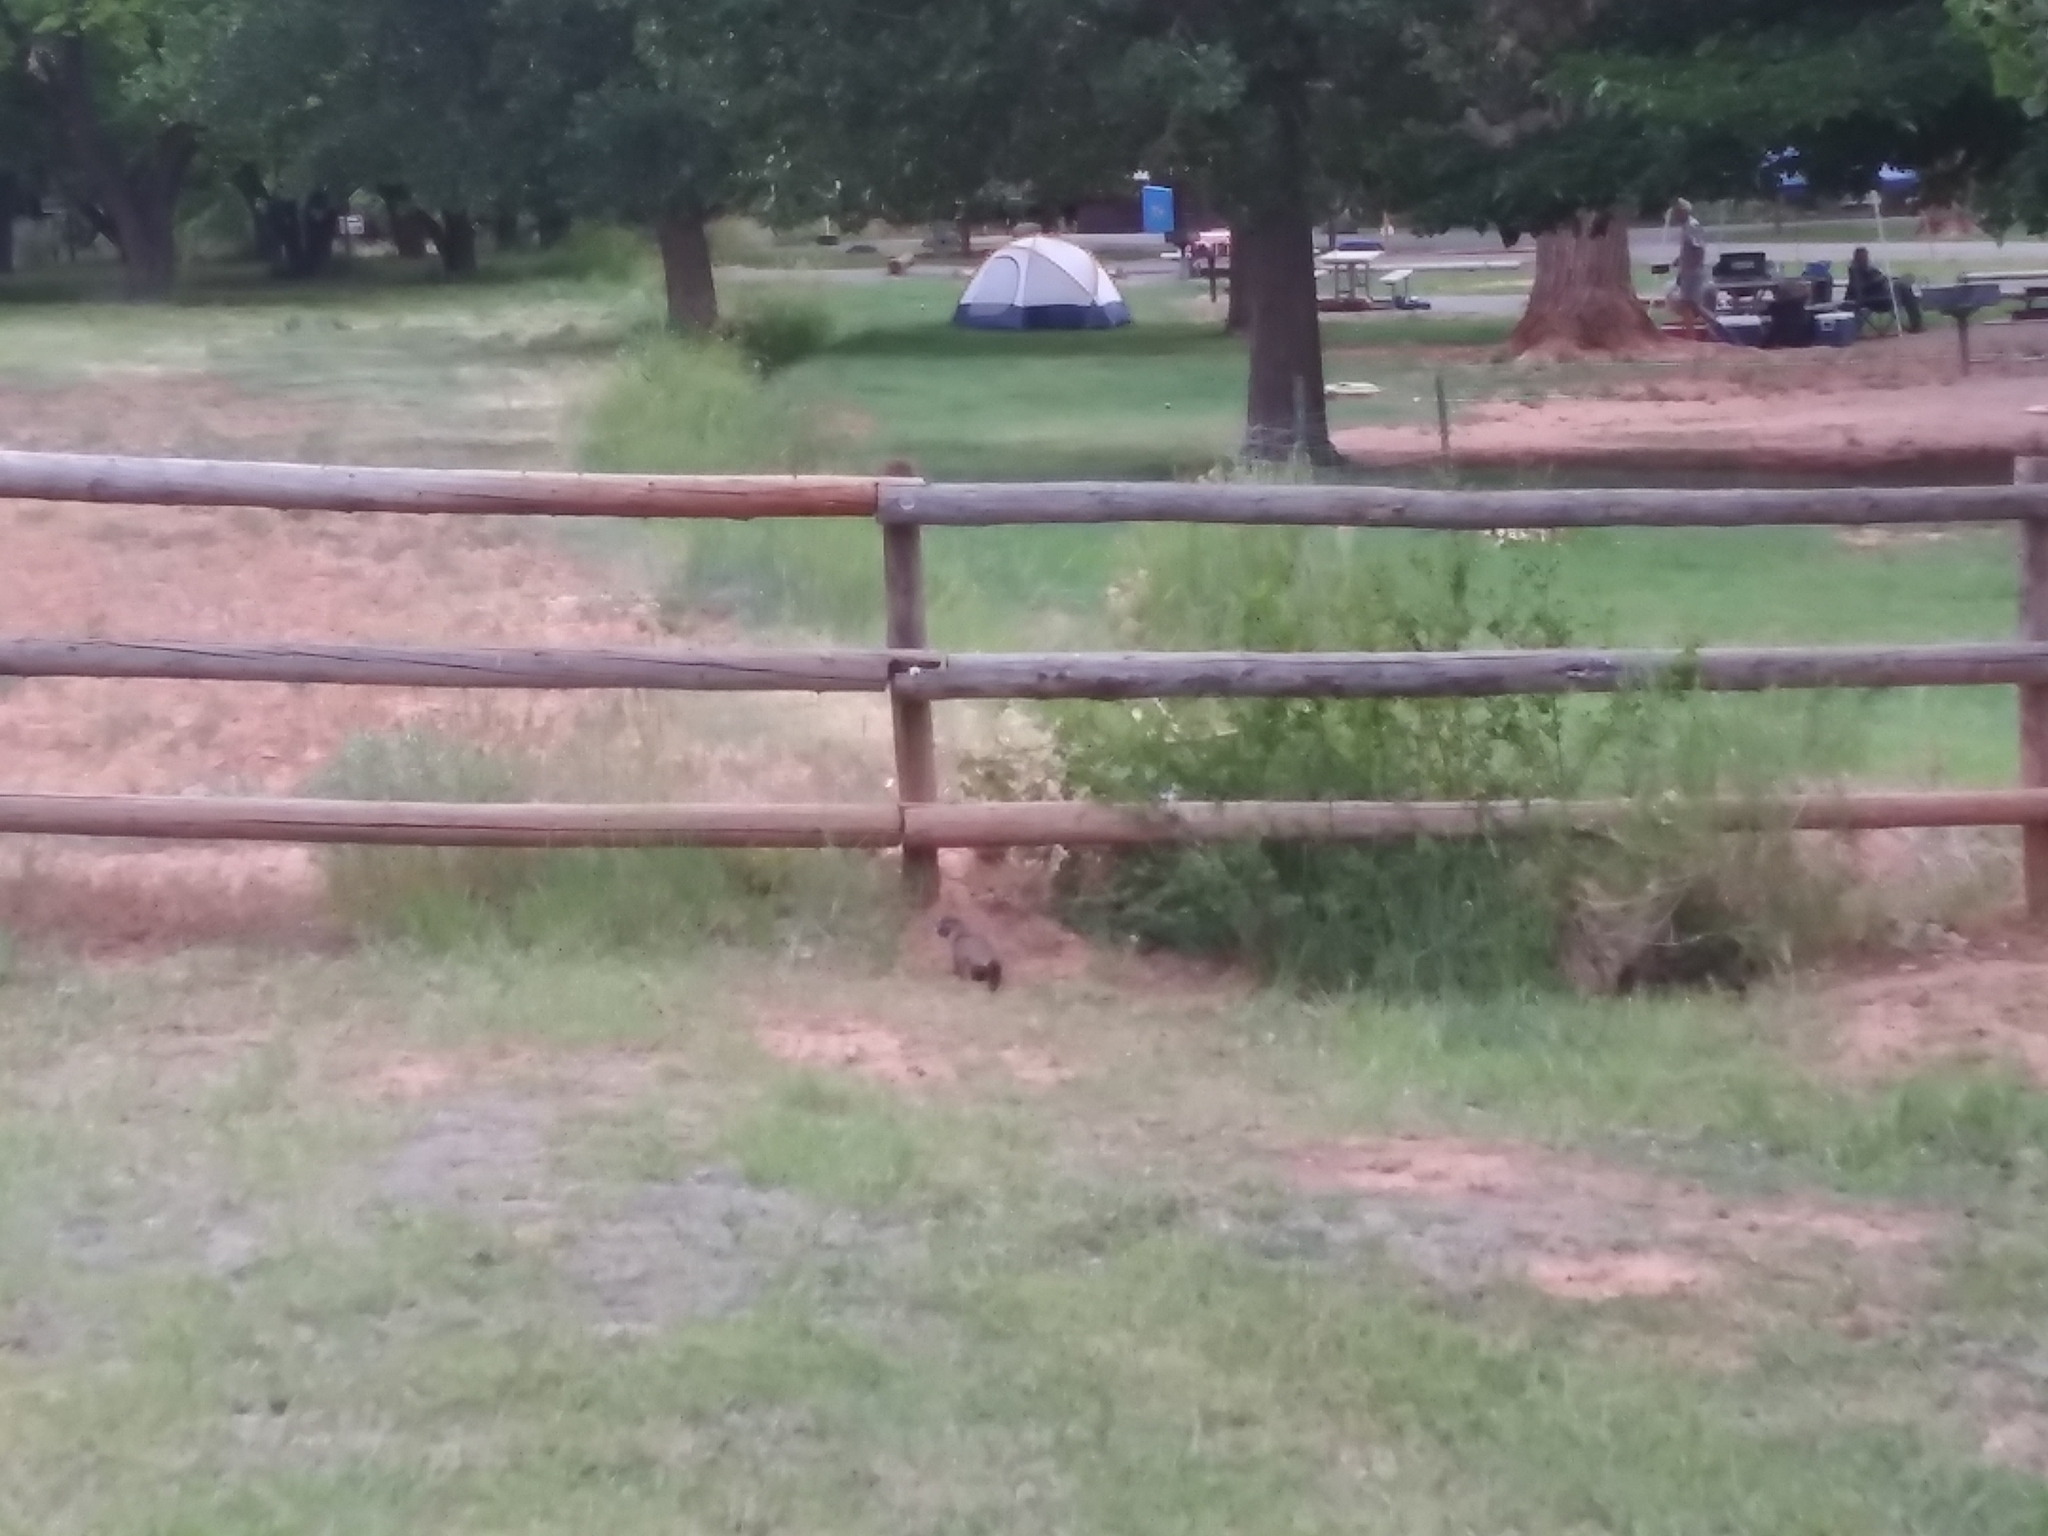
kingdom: Animalia
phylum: Chordata
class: Mammalia
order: Rodentia
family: Sciuridae
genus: Marmota
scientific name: Marmota flaviventris
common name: Yellow-bellied marmot
